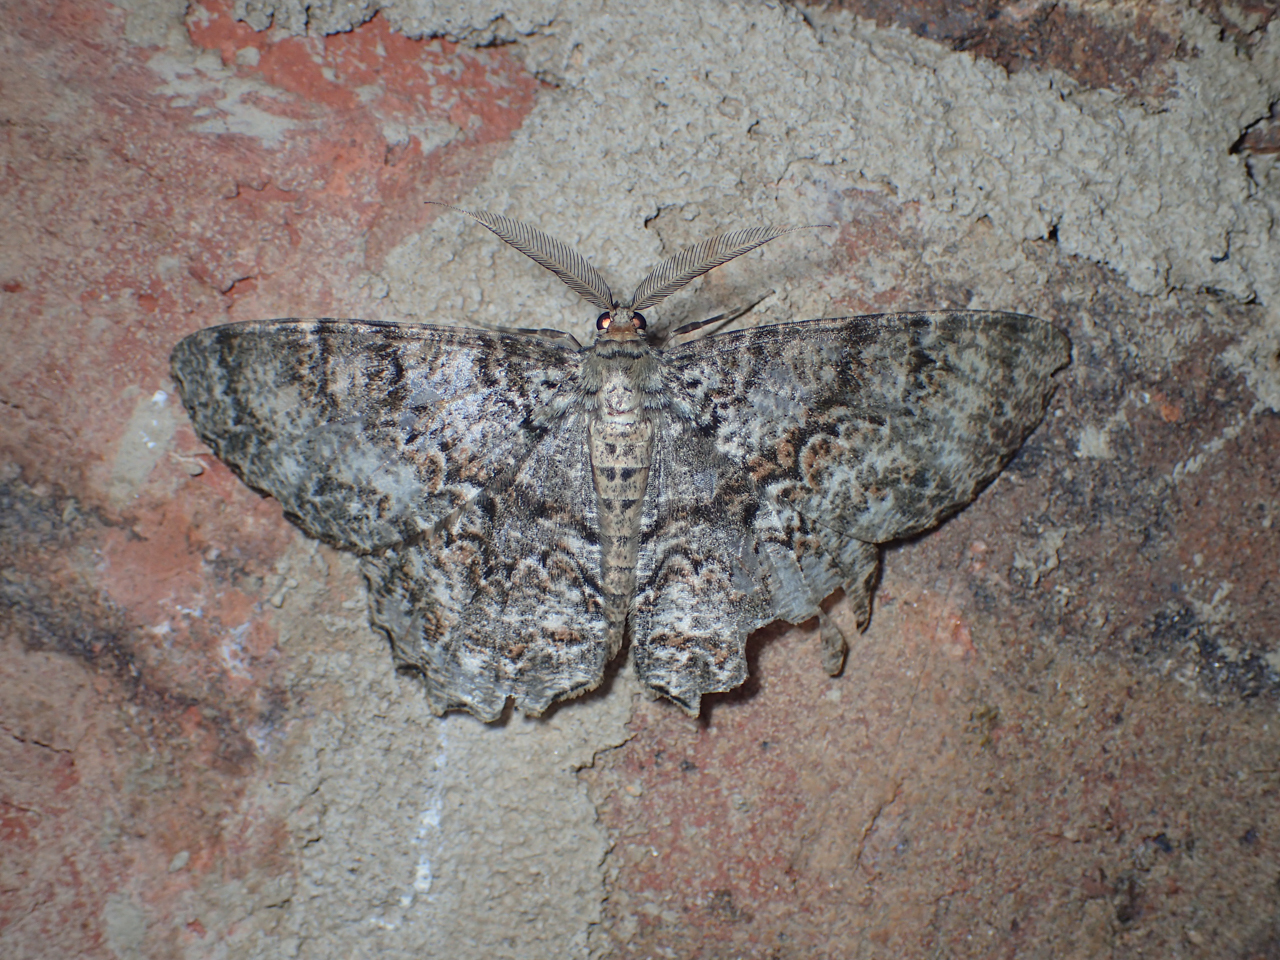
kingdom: Animalia
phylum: Arthropoda
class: Insecta
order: Lepidoptera
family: Geometridae
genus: Epimecis
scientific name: Epimecis hortaria
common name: Tulip-tree beauty
